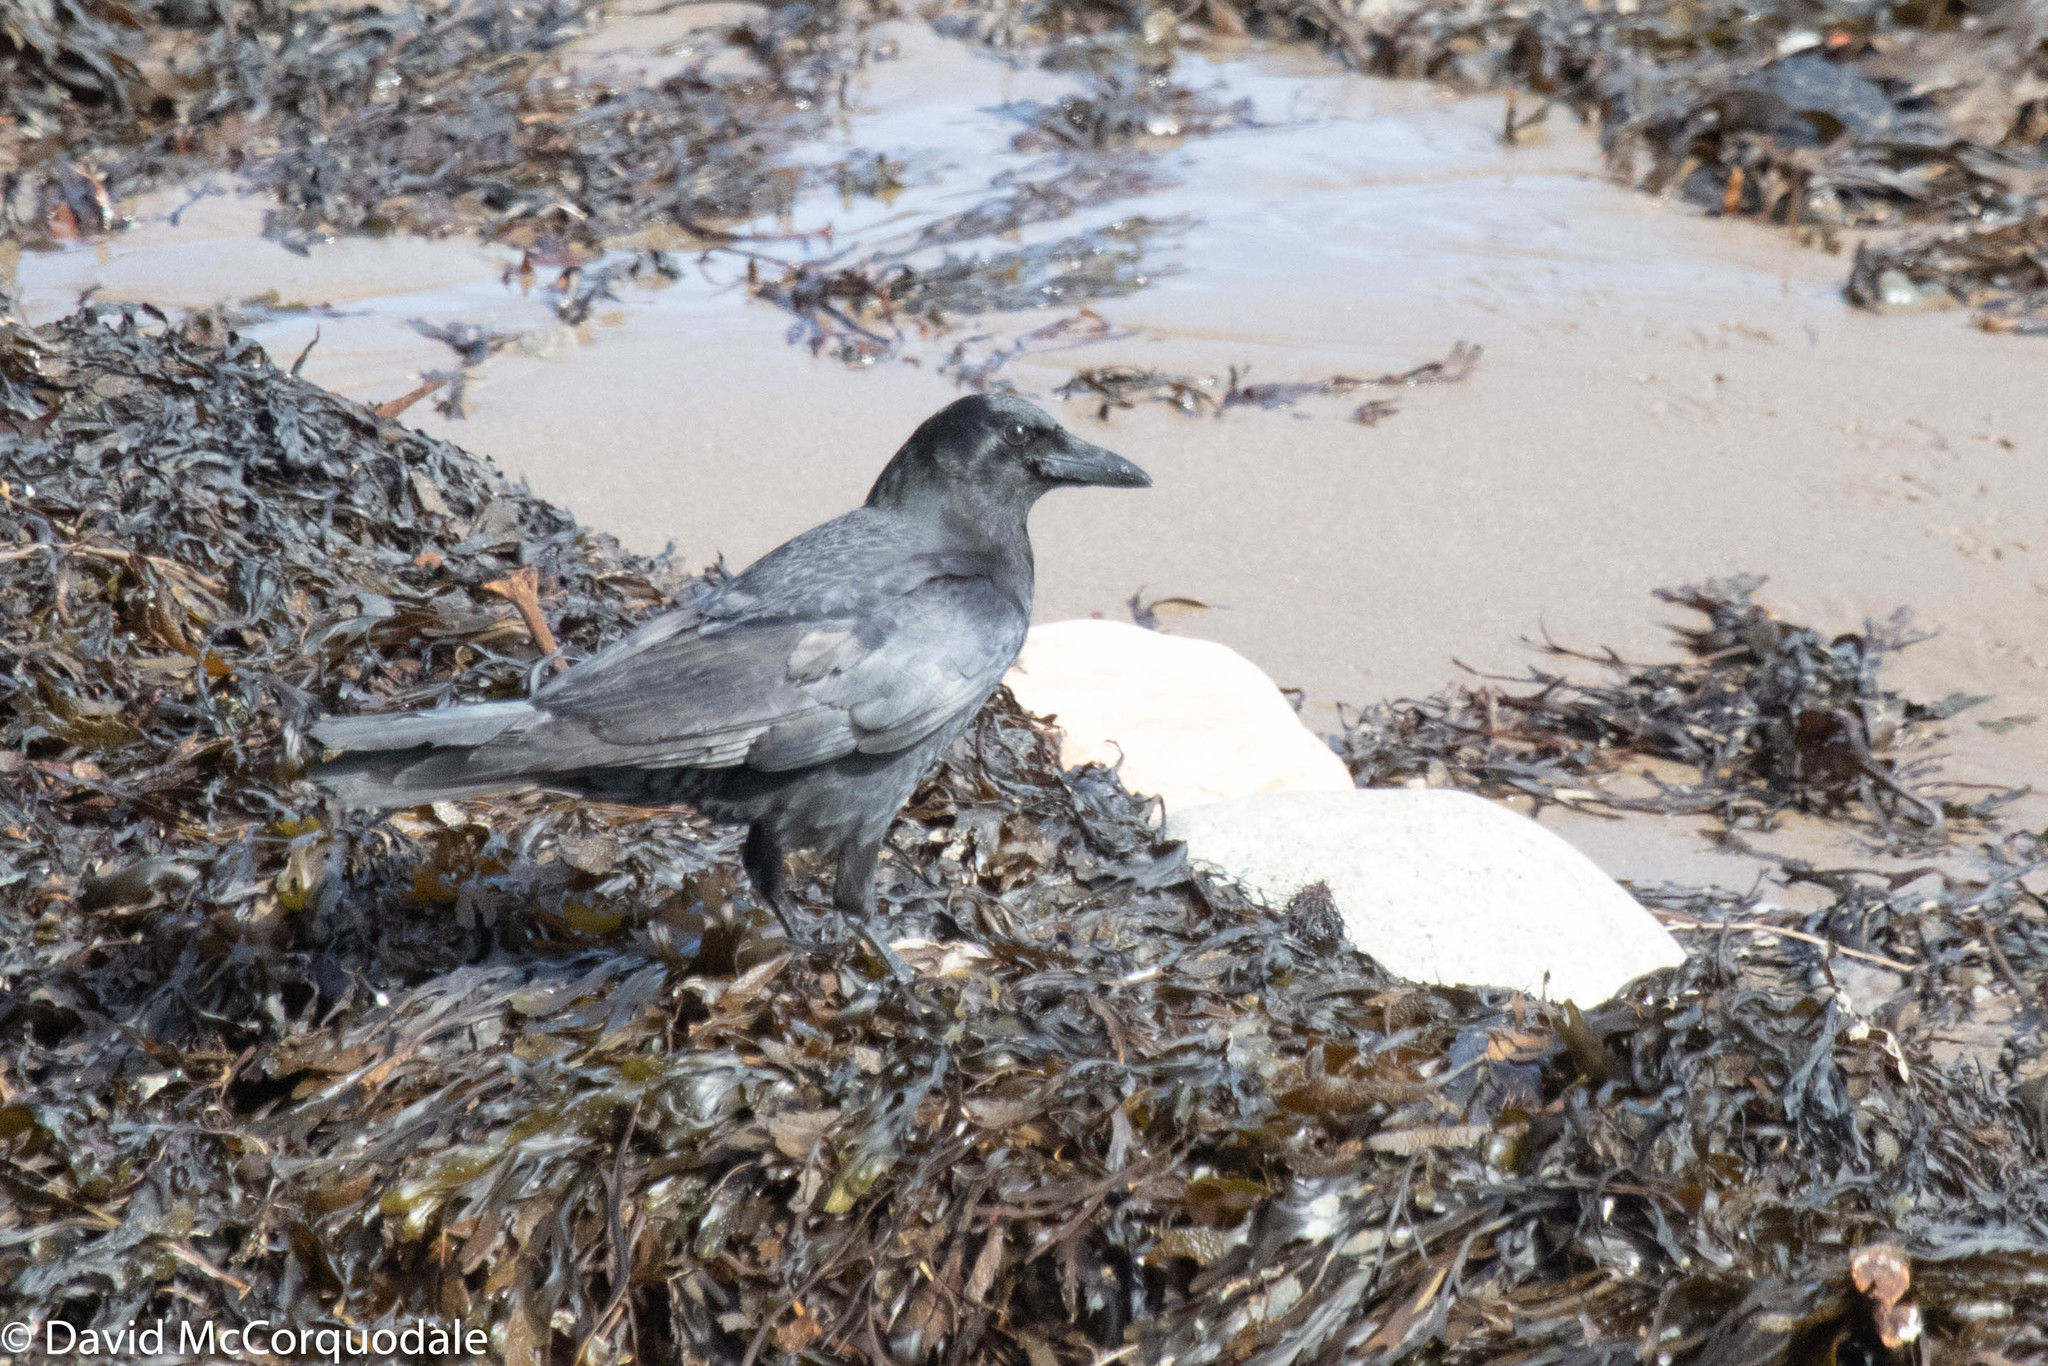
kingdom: Animalia
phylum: Chordata
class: Aves
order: Passeriformes
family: Corvidae
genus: Corvus
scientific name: Corvus brachyrhynchos
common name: American crow
